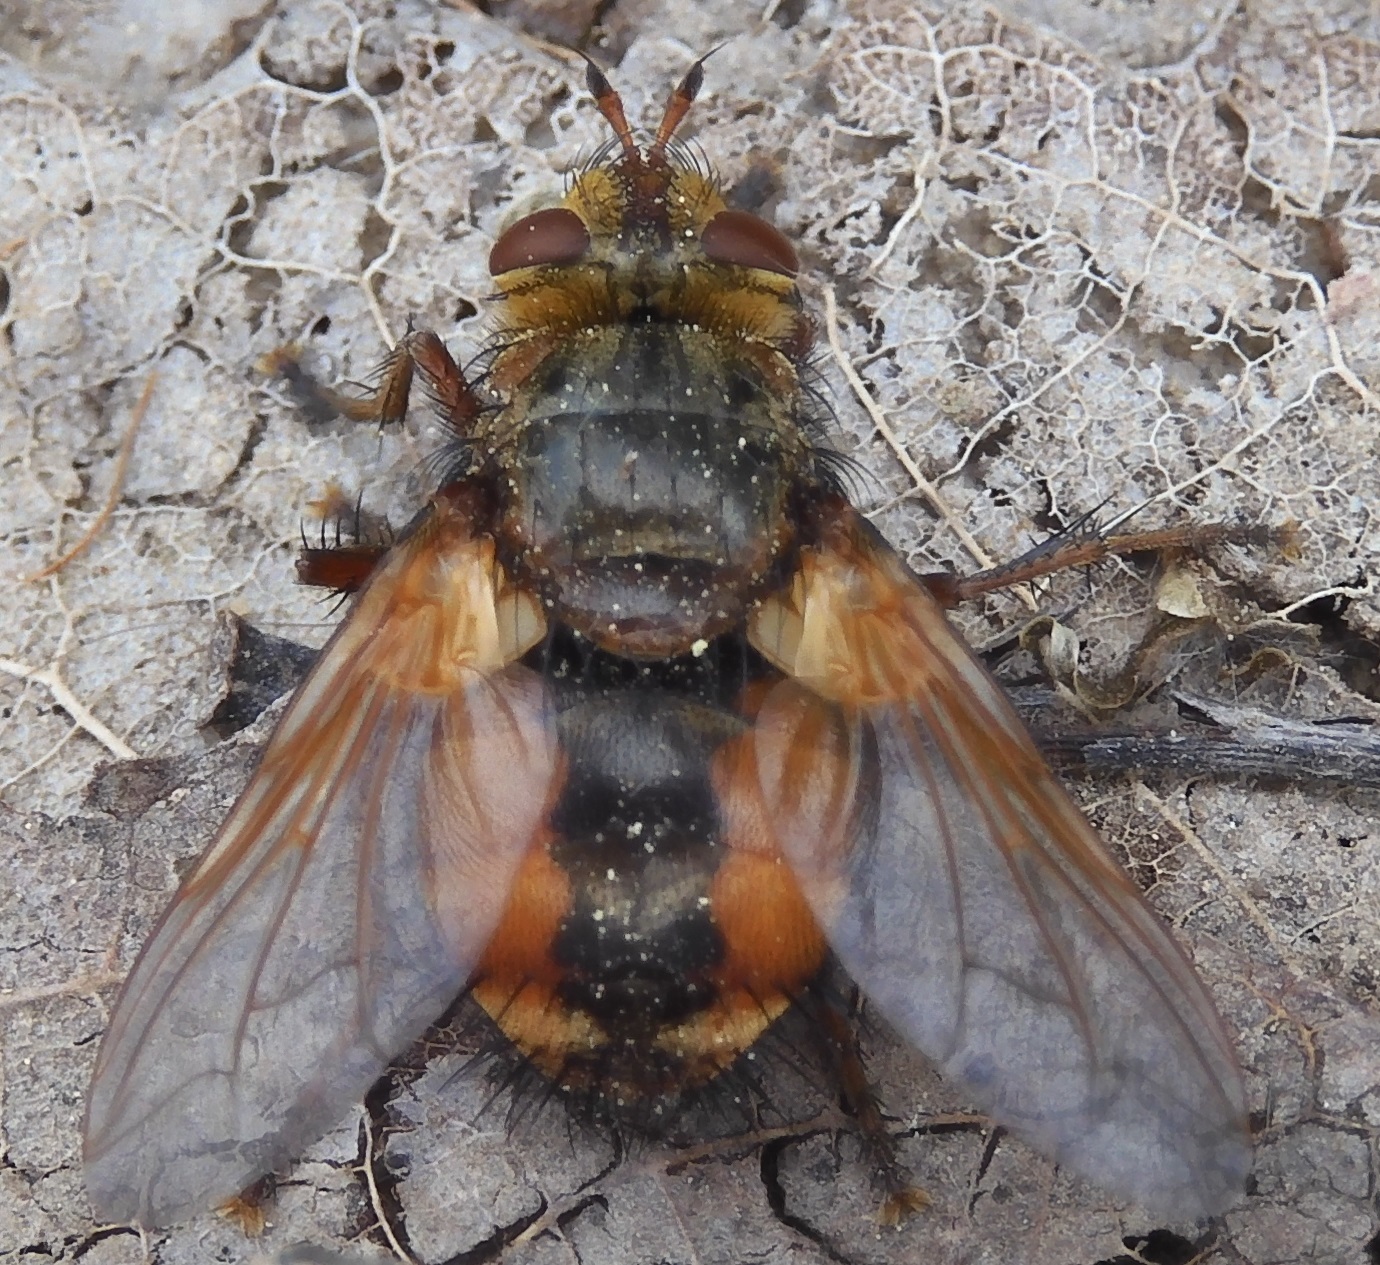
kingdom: Animalia
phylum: Arthropoda
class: Insecta
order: Diptera
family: Tachinidae
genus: Tachina
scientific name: Tachina fera
